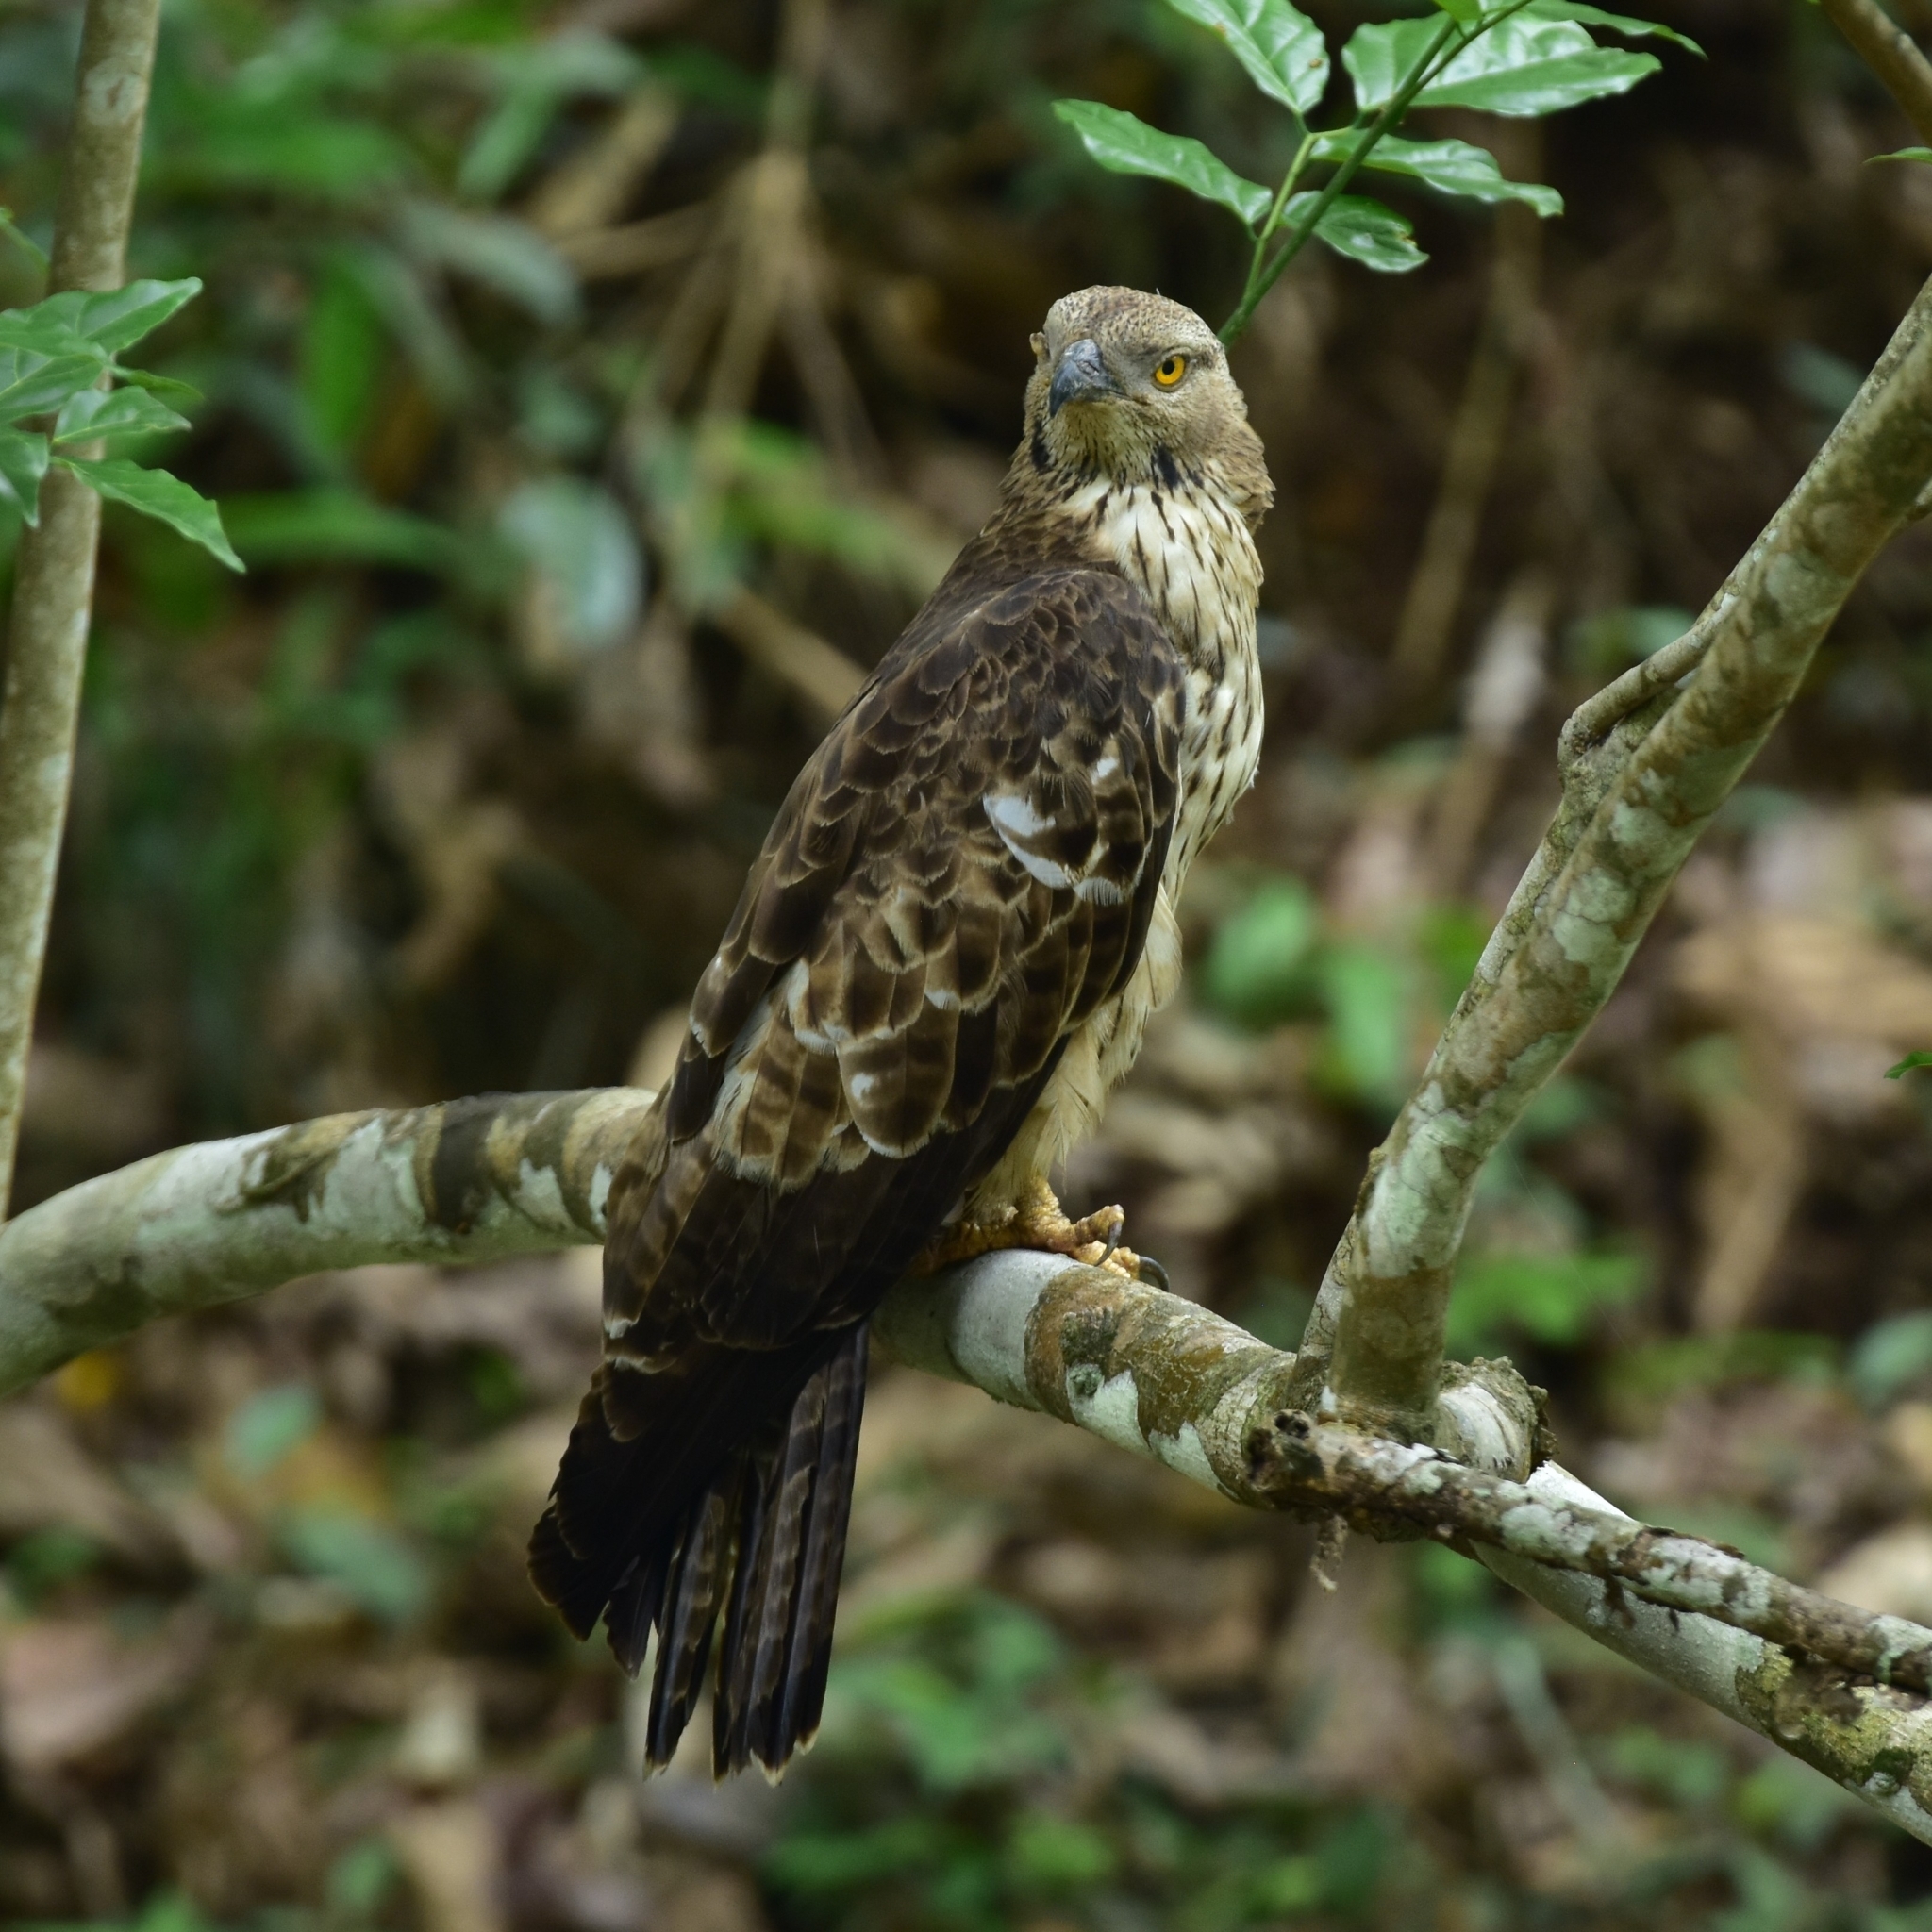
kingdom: Animalia
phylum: Chordata
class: Aves
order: Accipitriformes
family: Accipitridae
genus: Pernis
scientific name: Pernis ptilorhynchus
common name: Crested honey buzzard
